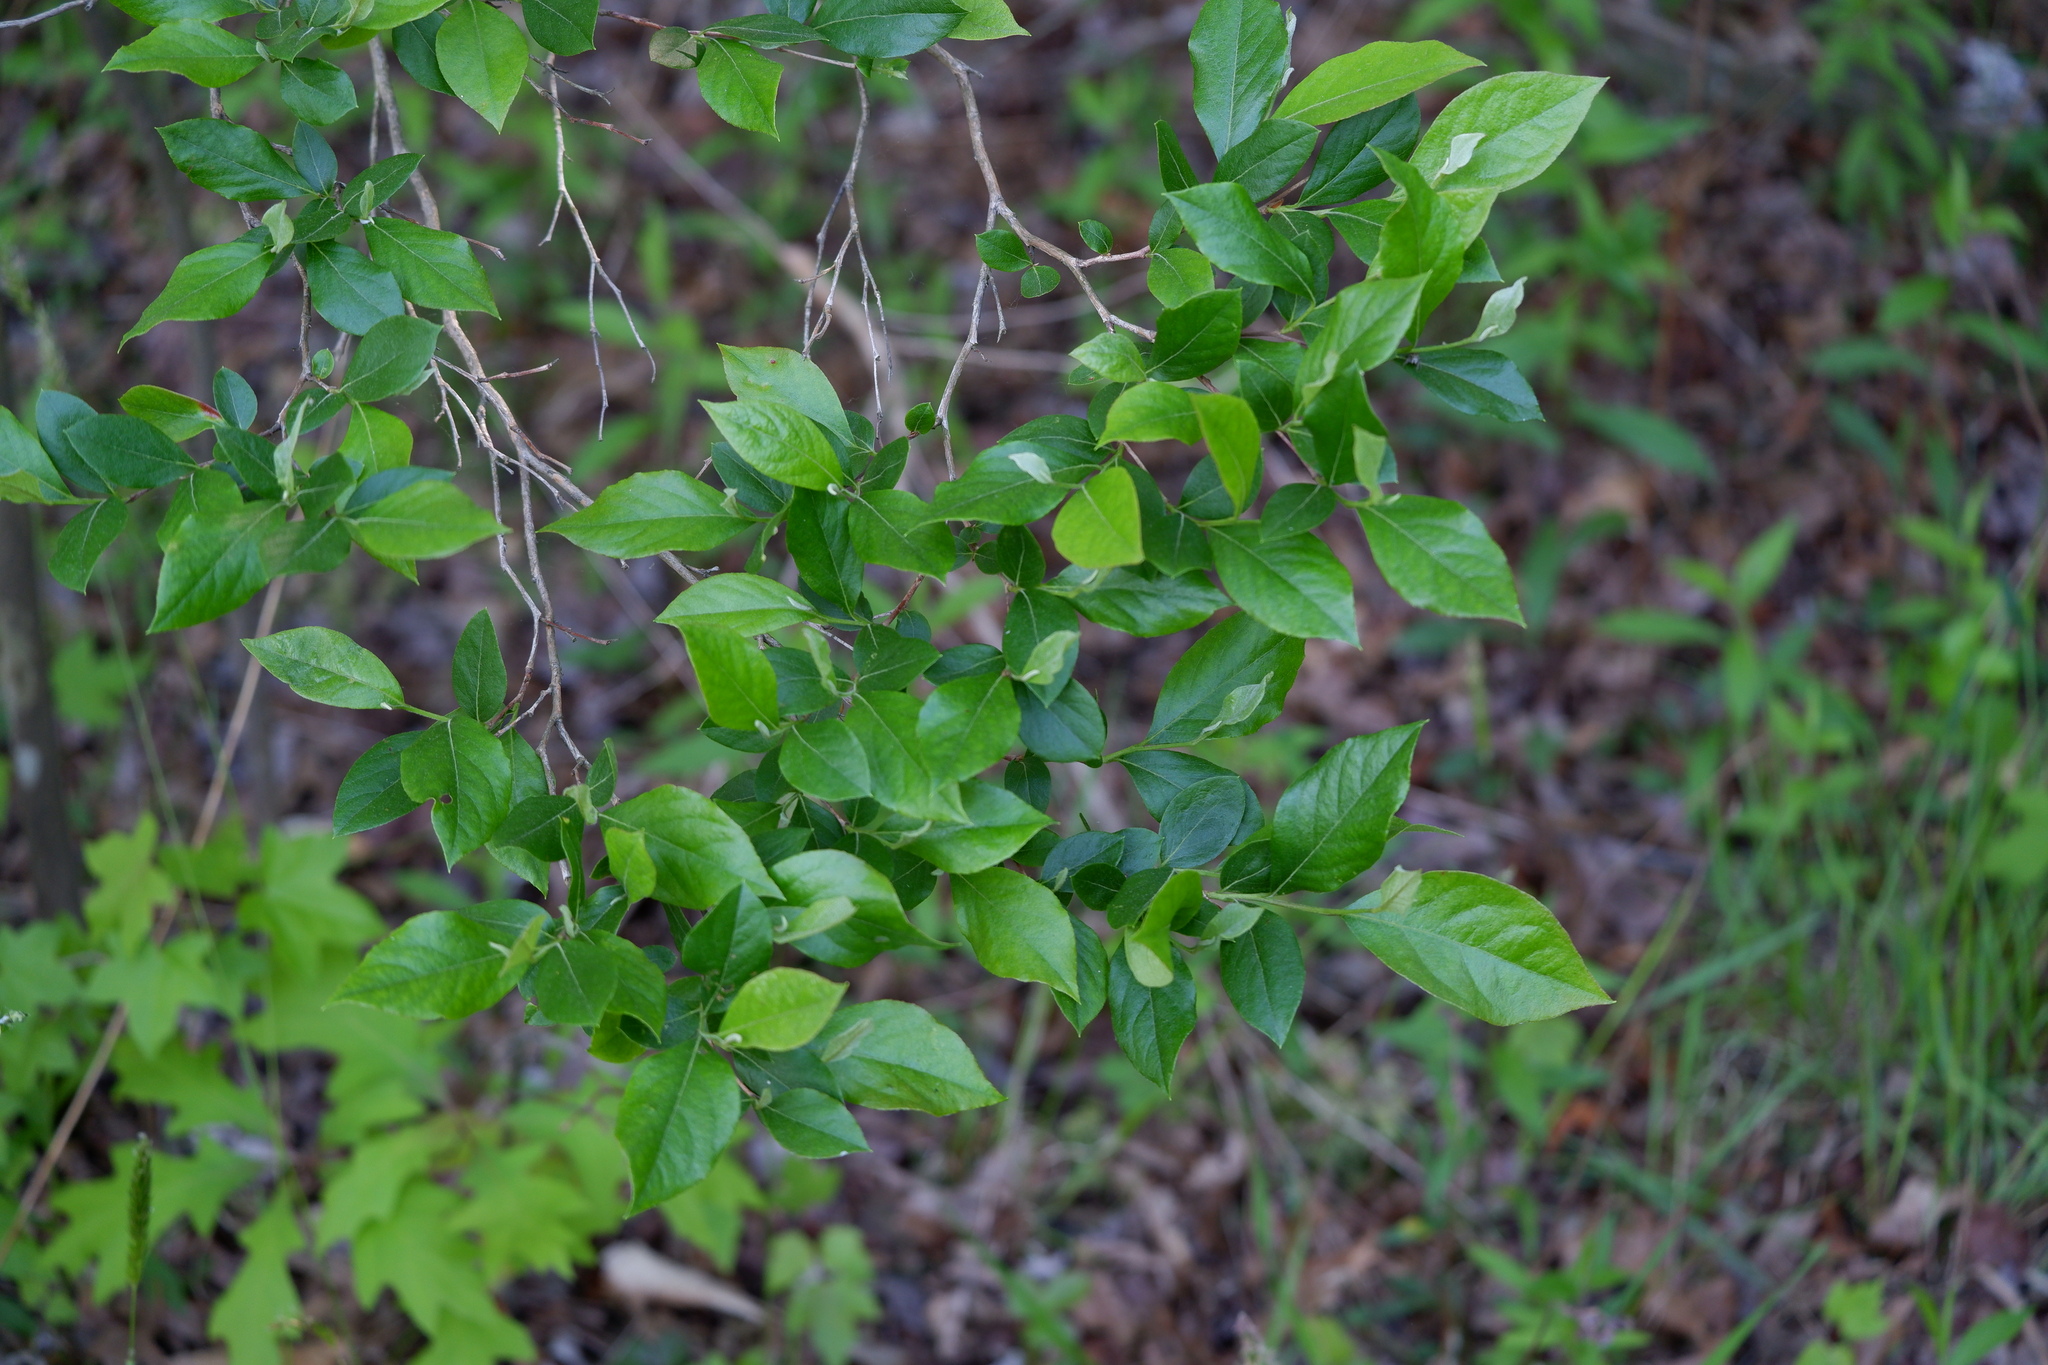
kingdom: Plantae
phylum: Tracheophyta
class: Magnoliopsida
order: Ericales
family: Ericaceae
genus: Lyonia
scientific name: Lyonia ligustrina
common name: Maleberry
